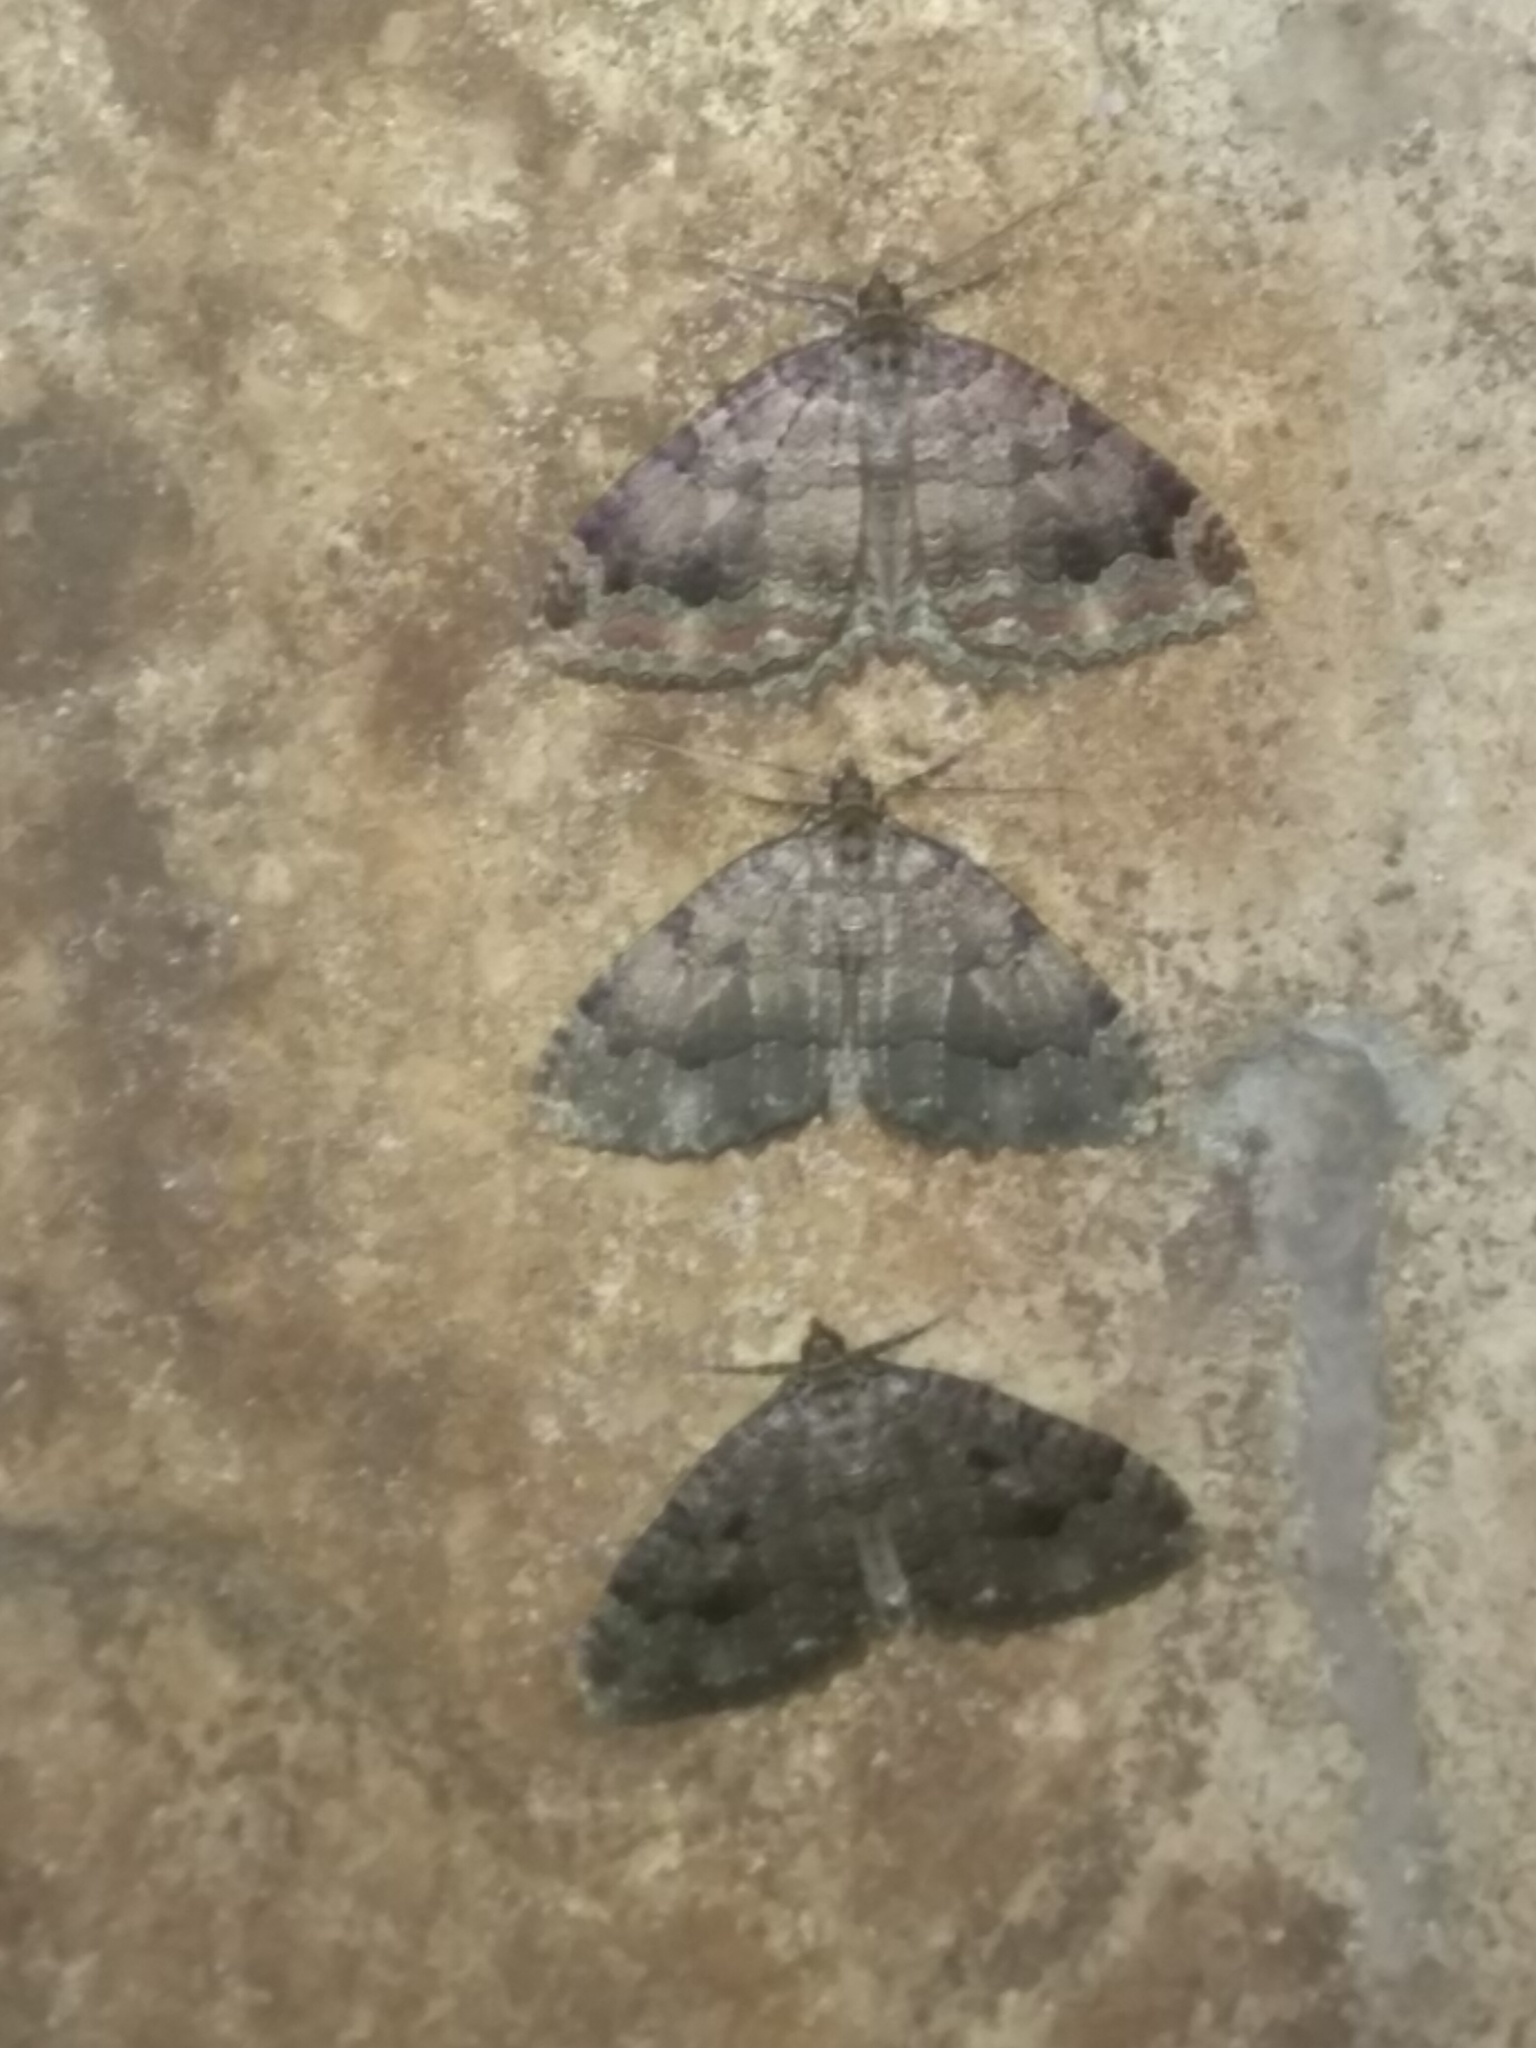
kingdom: Animalia
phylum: Arthropoda
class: Insecta
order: Lepidoptera
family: Geometridae
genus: Triphosa
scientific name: Triphosa dubitata
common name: Tissue
